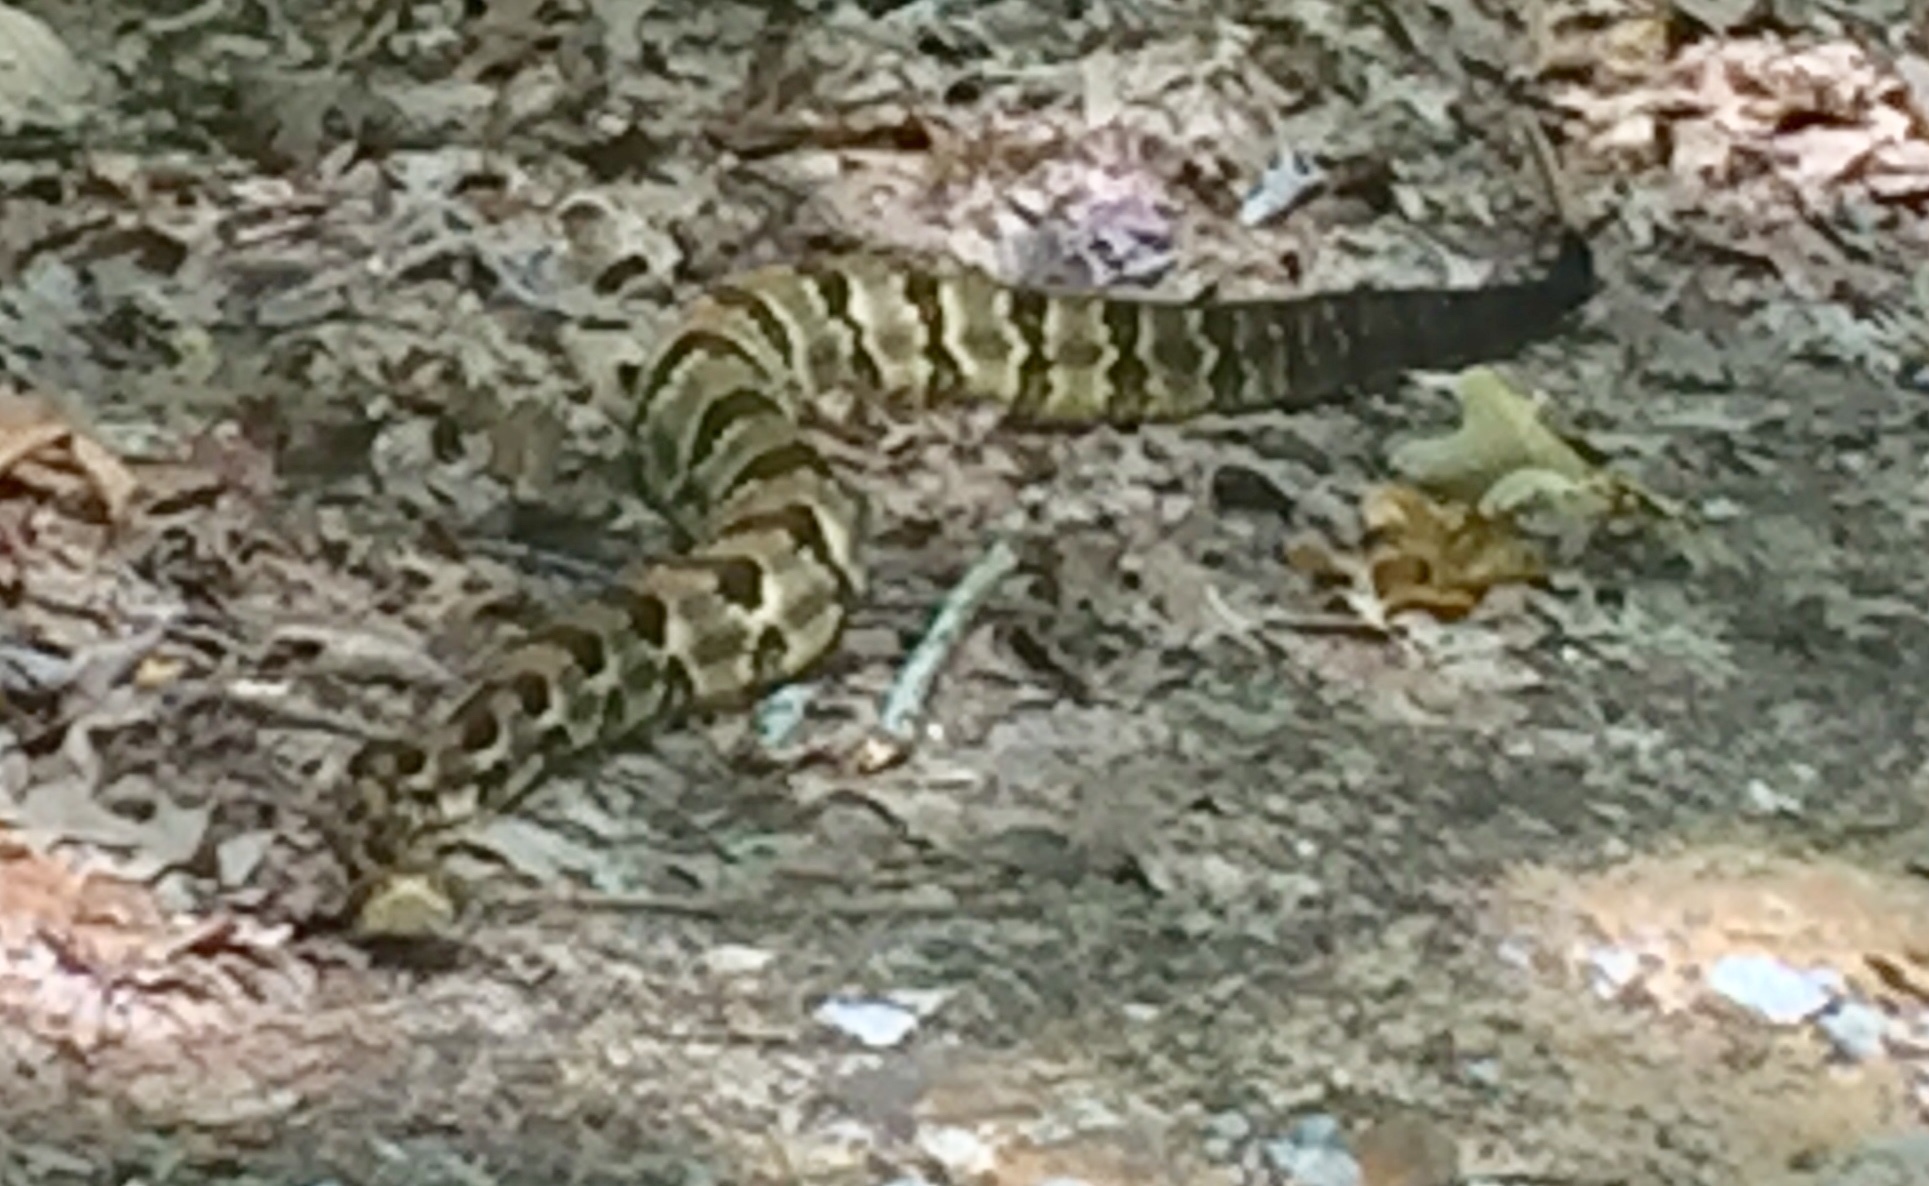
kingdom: Animalia
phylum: Chordata
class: Squamata
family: Viperidae
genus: Crotalus
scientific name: Crotalus horridus
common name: Timber rattlesnake
